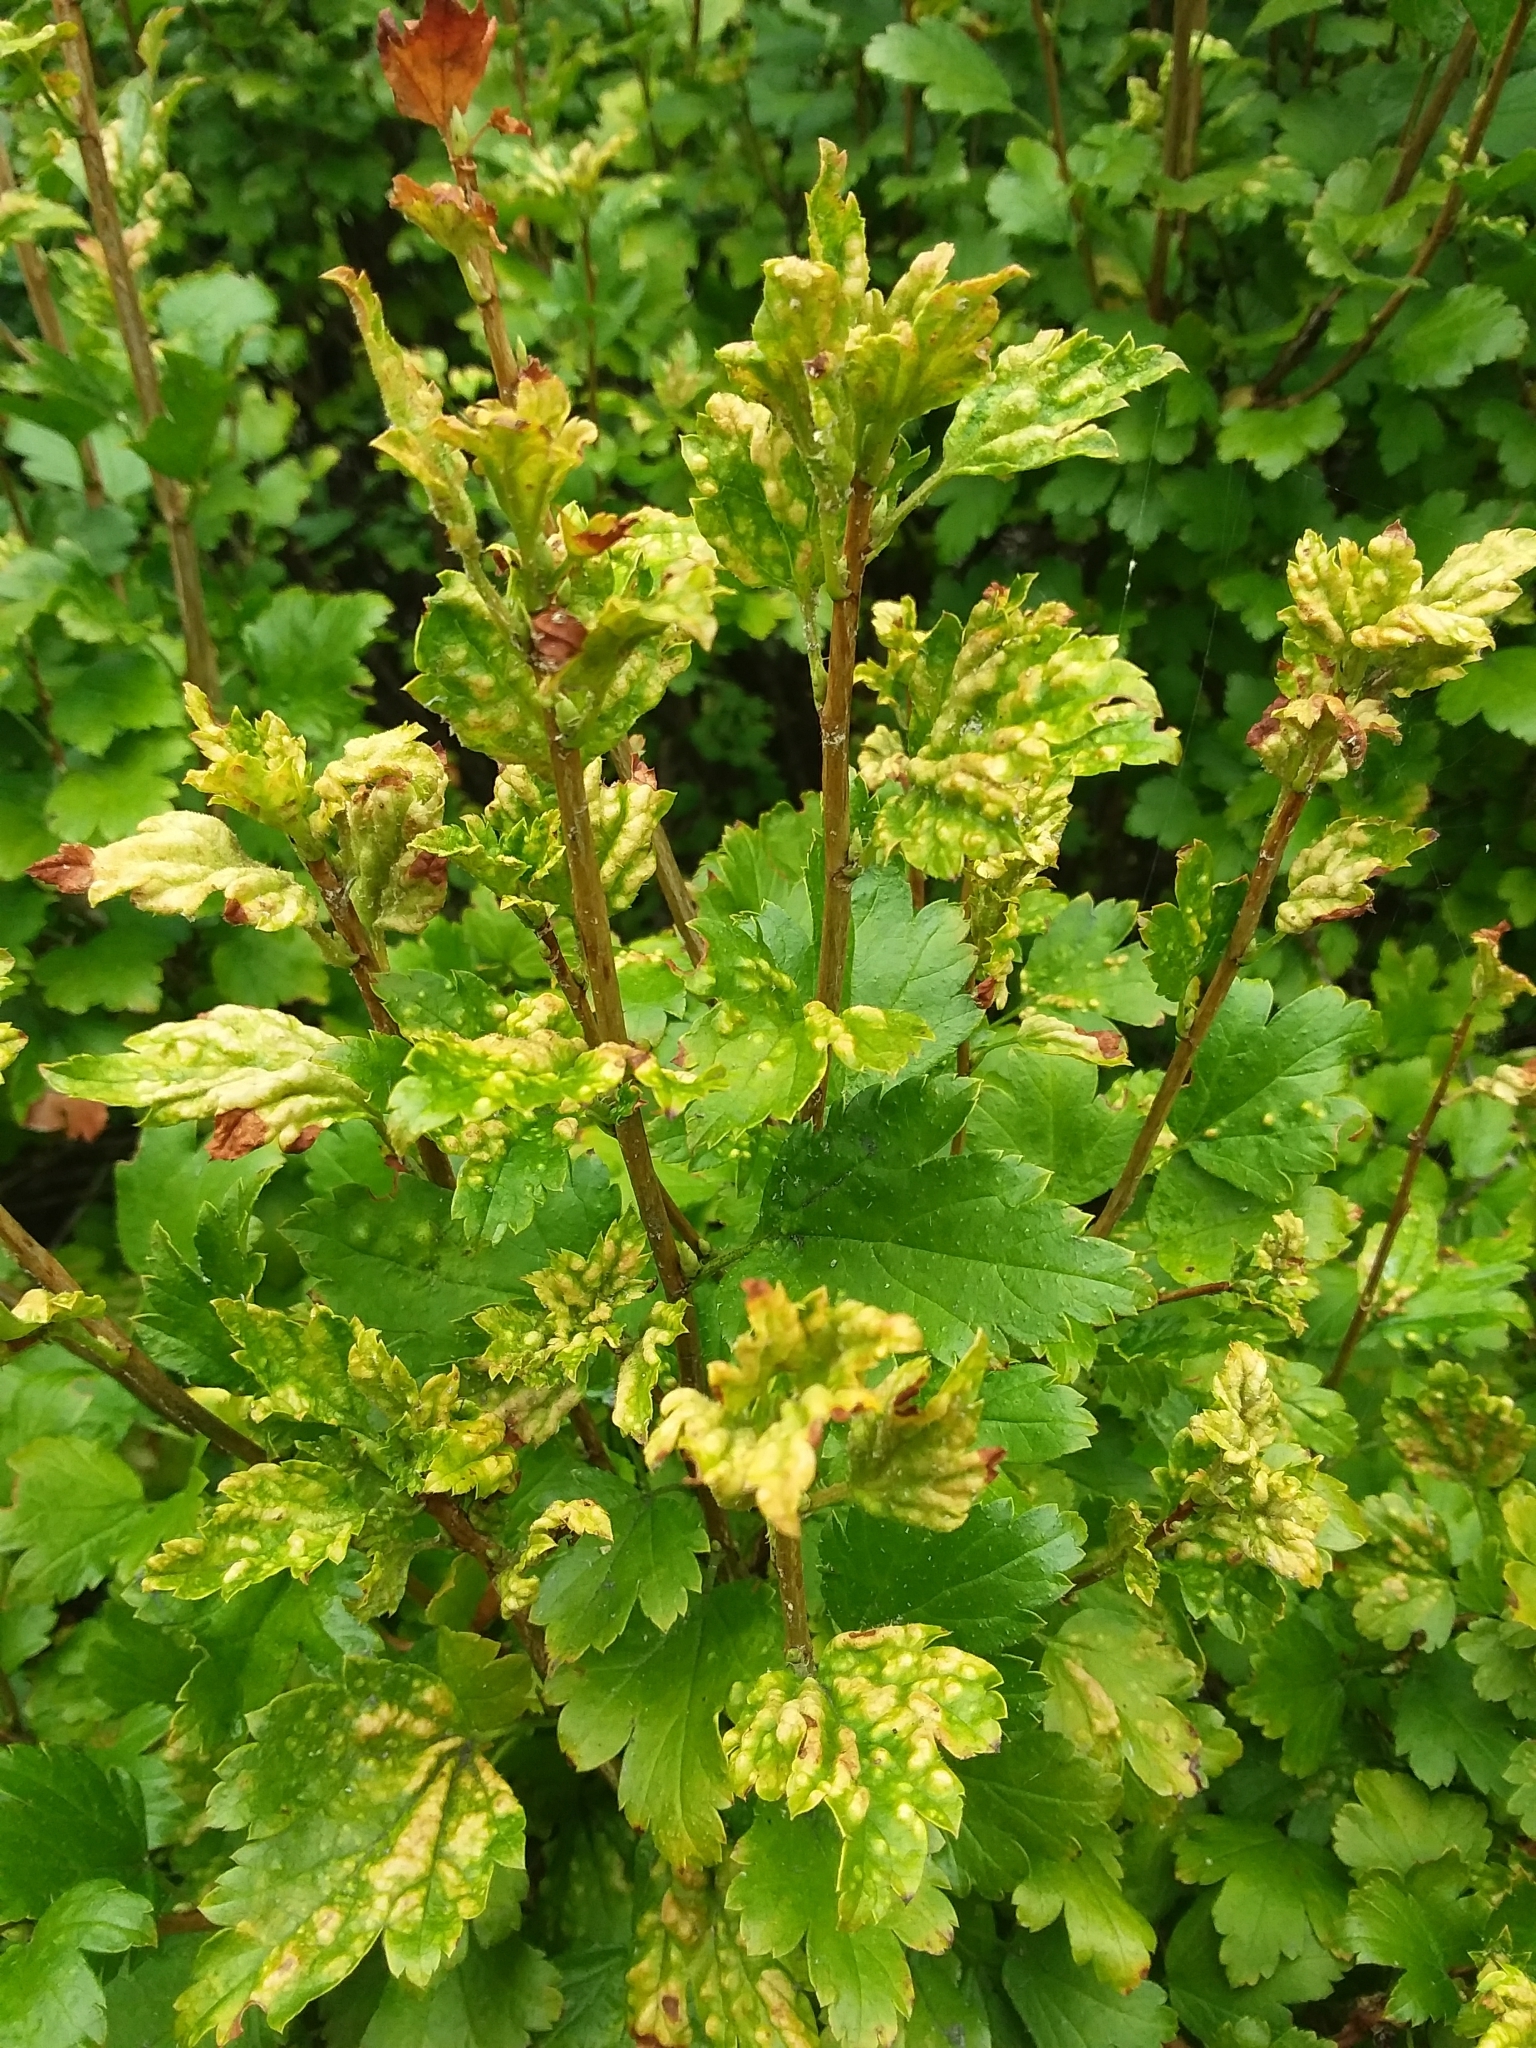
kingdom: Animalia
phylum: Arthropoda
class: Insecta
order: Hemiptera
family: Aphididae
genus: Cryptomyzus
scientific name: Cryptomyzus ribis
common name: Currant aphid
